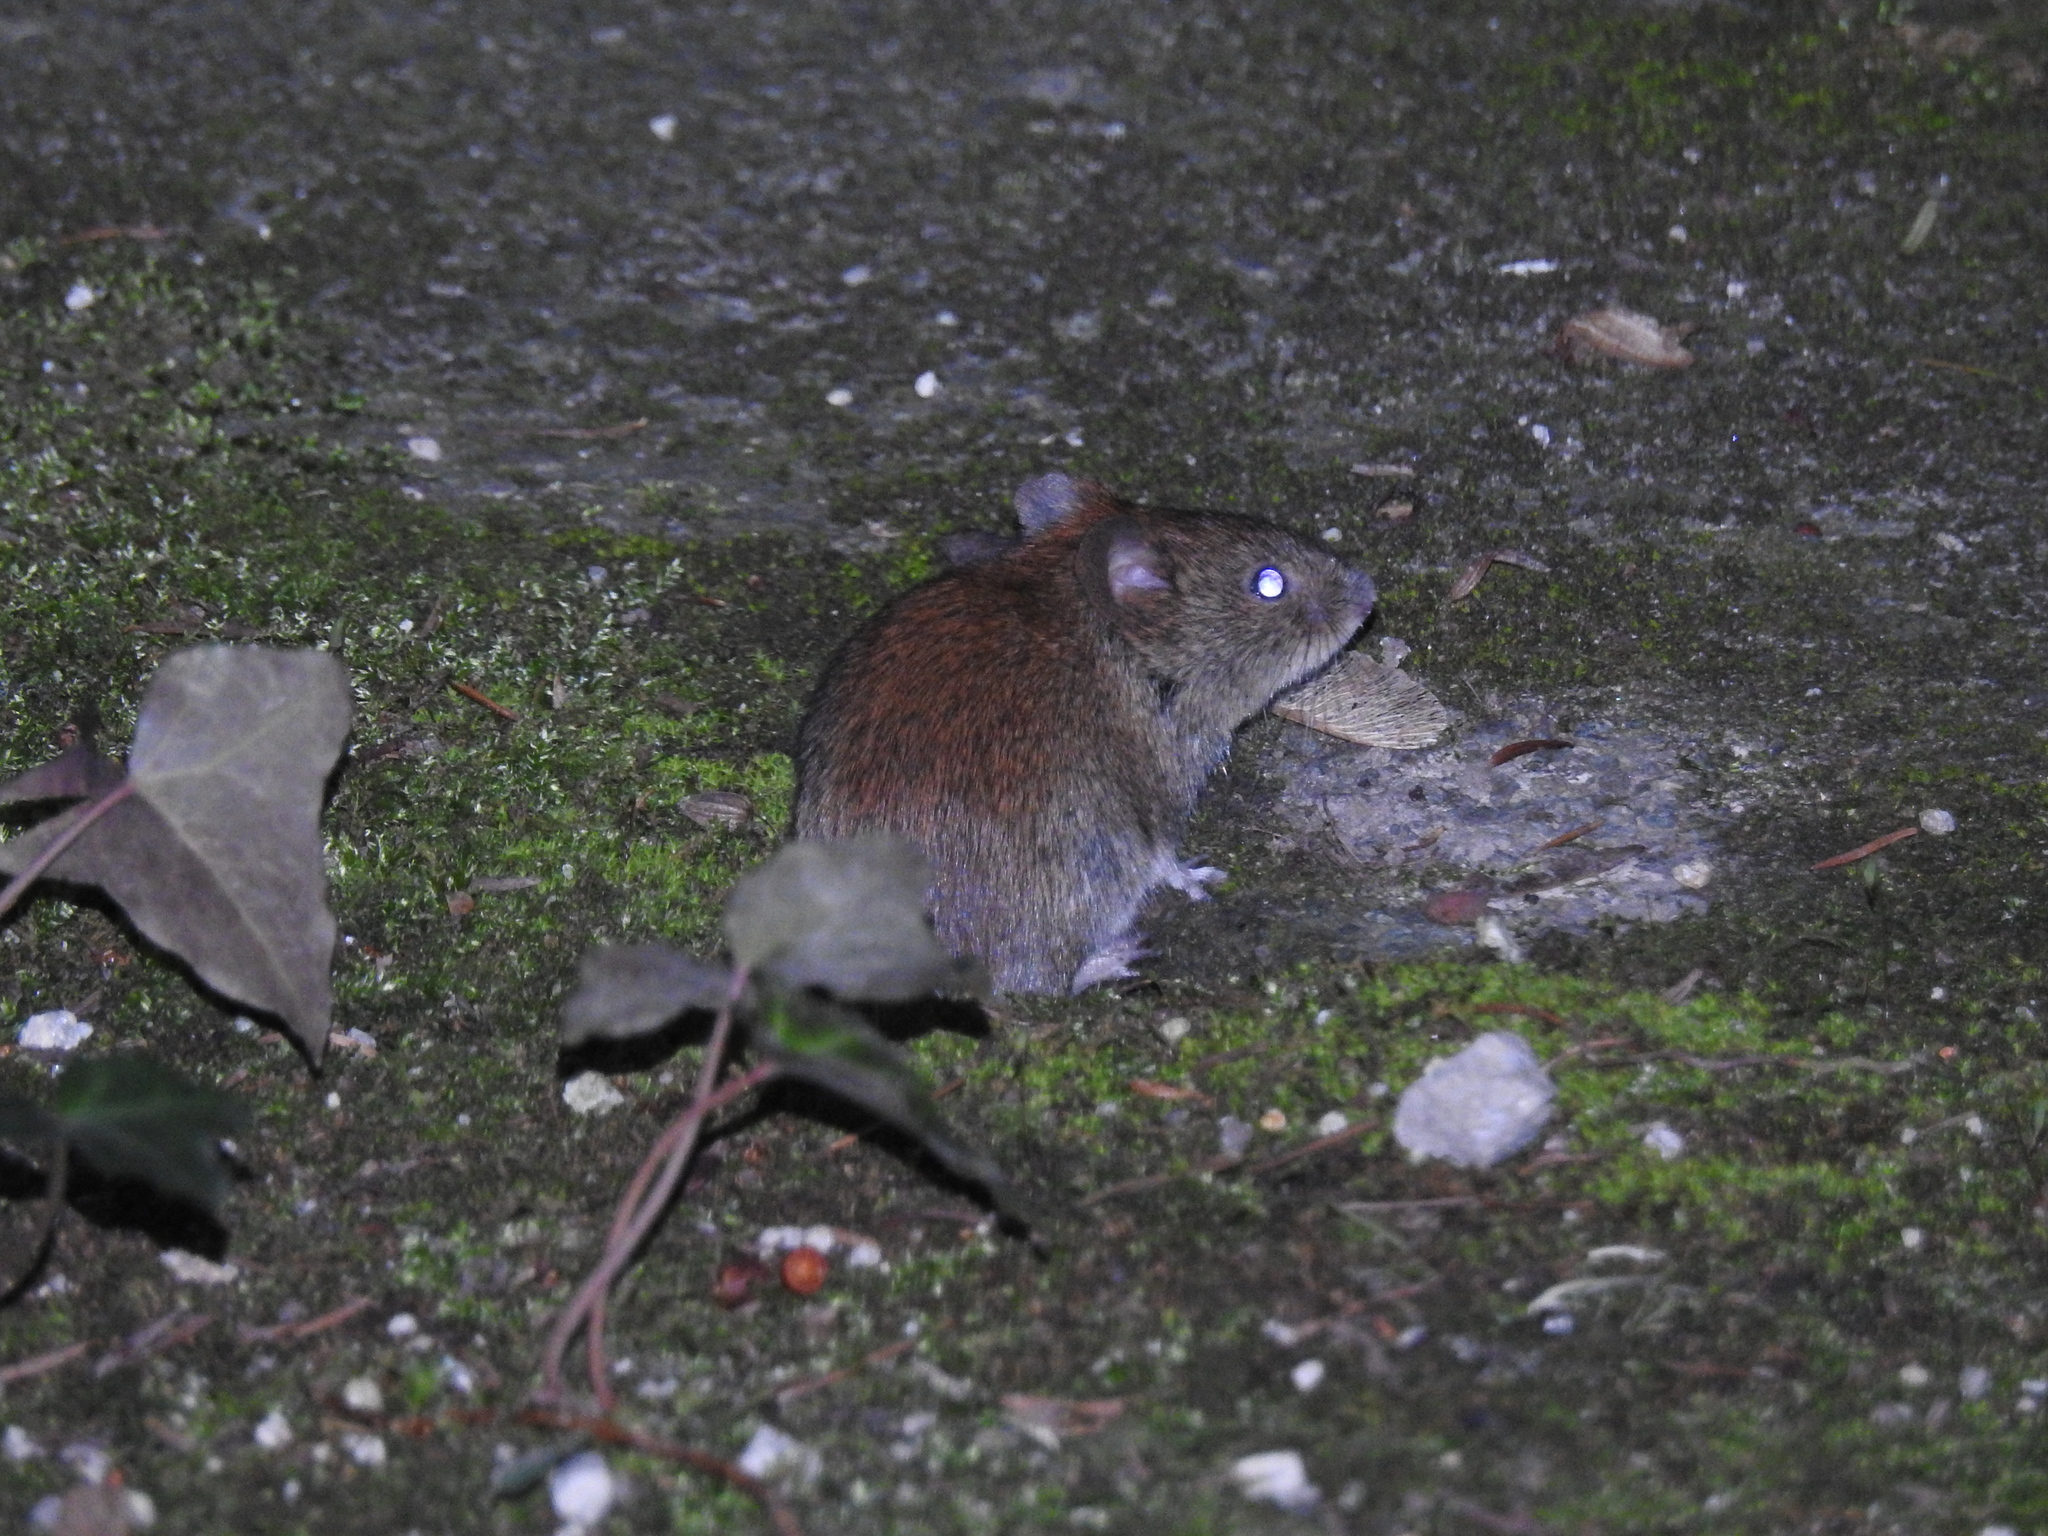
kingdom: Animalia
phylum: Chordata
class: Mammalia
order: Rodentia
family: Cricetidae
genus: Myodes
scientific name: Myodes glareolus
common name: Bank vole
